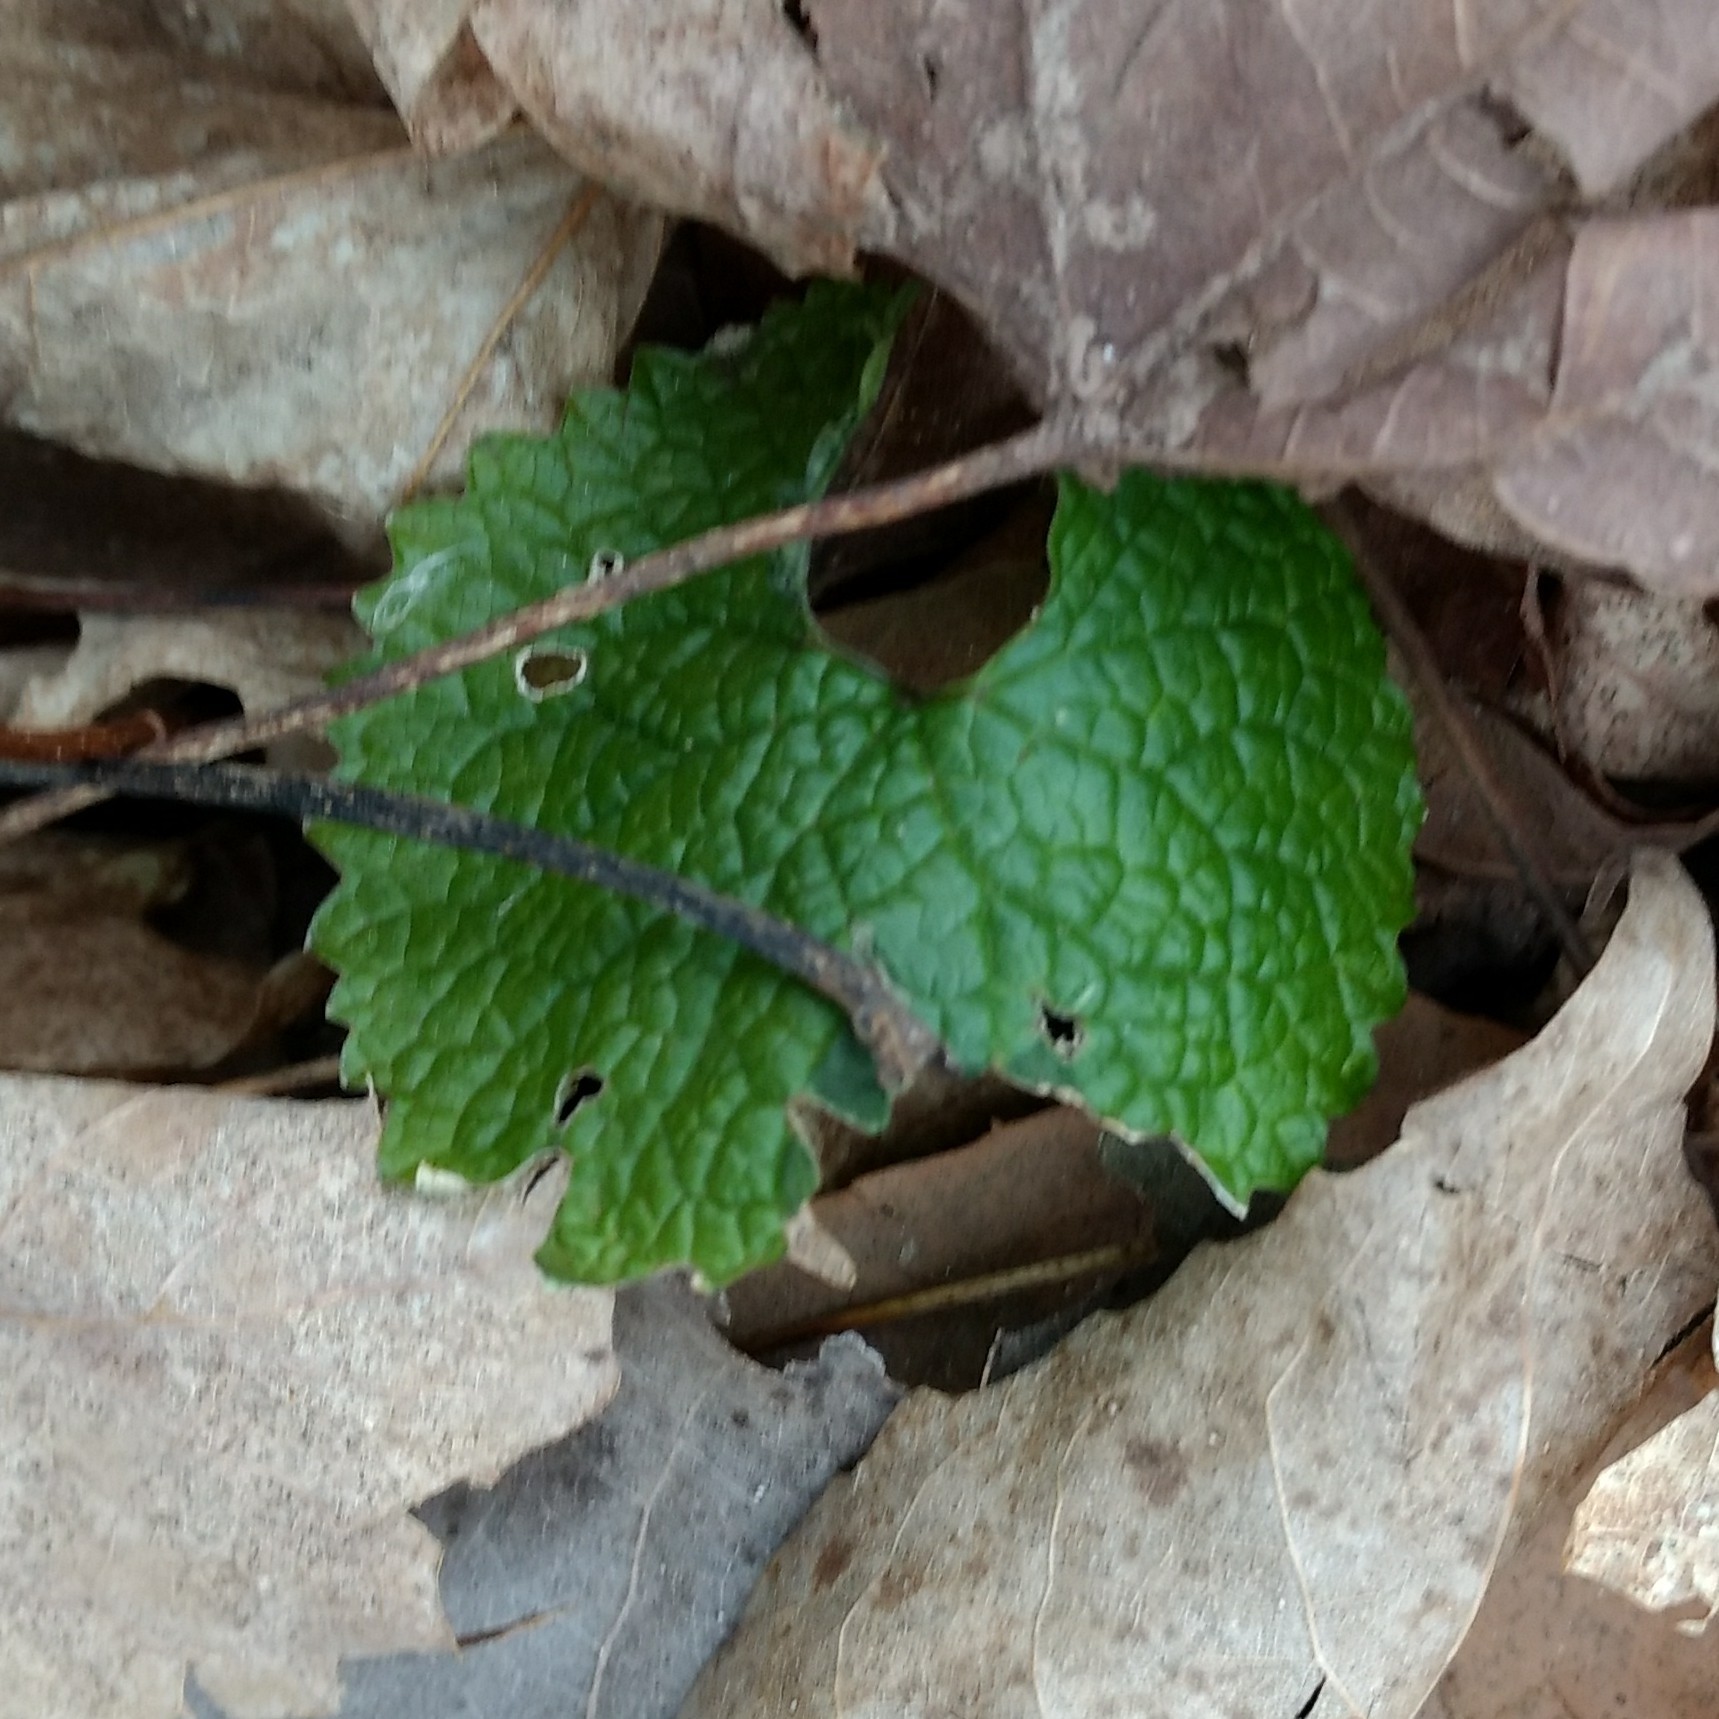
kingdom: Plantae
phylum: Tracheophyta
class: Magnoliopsida
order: Brassicales
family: Brassicaceae
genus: Alliaria
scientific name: Alliaria petiolata
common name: Garlic mustard
